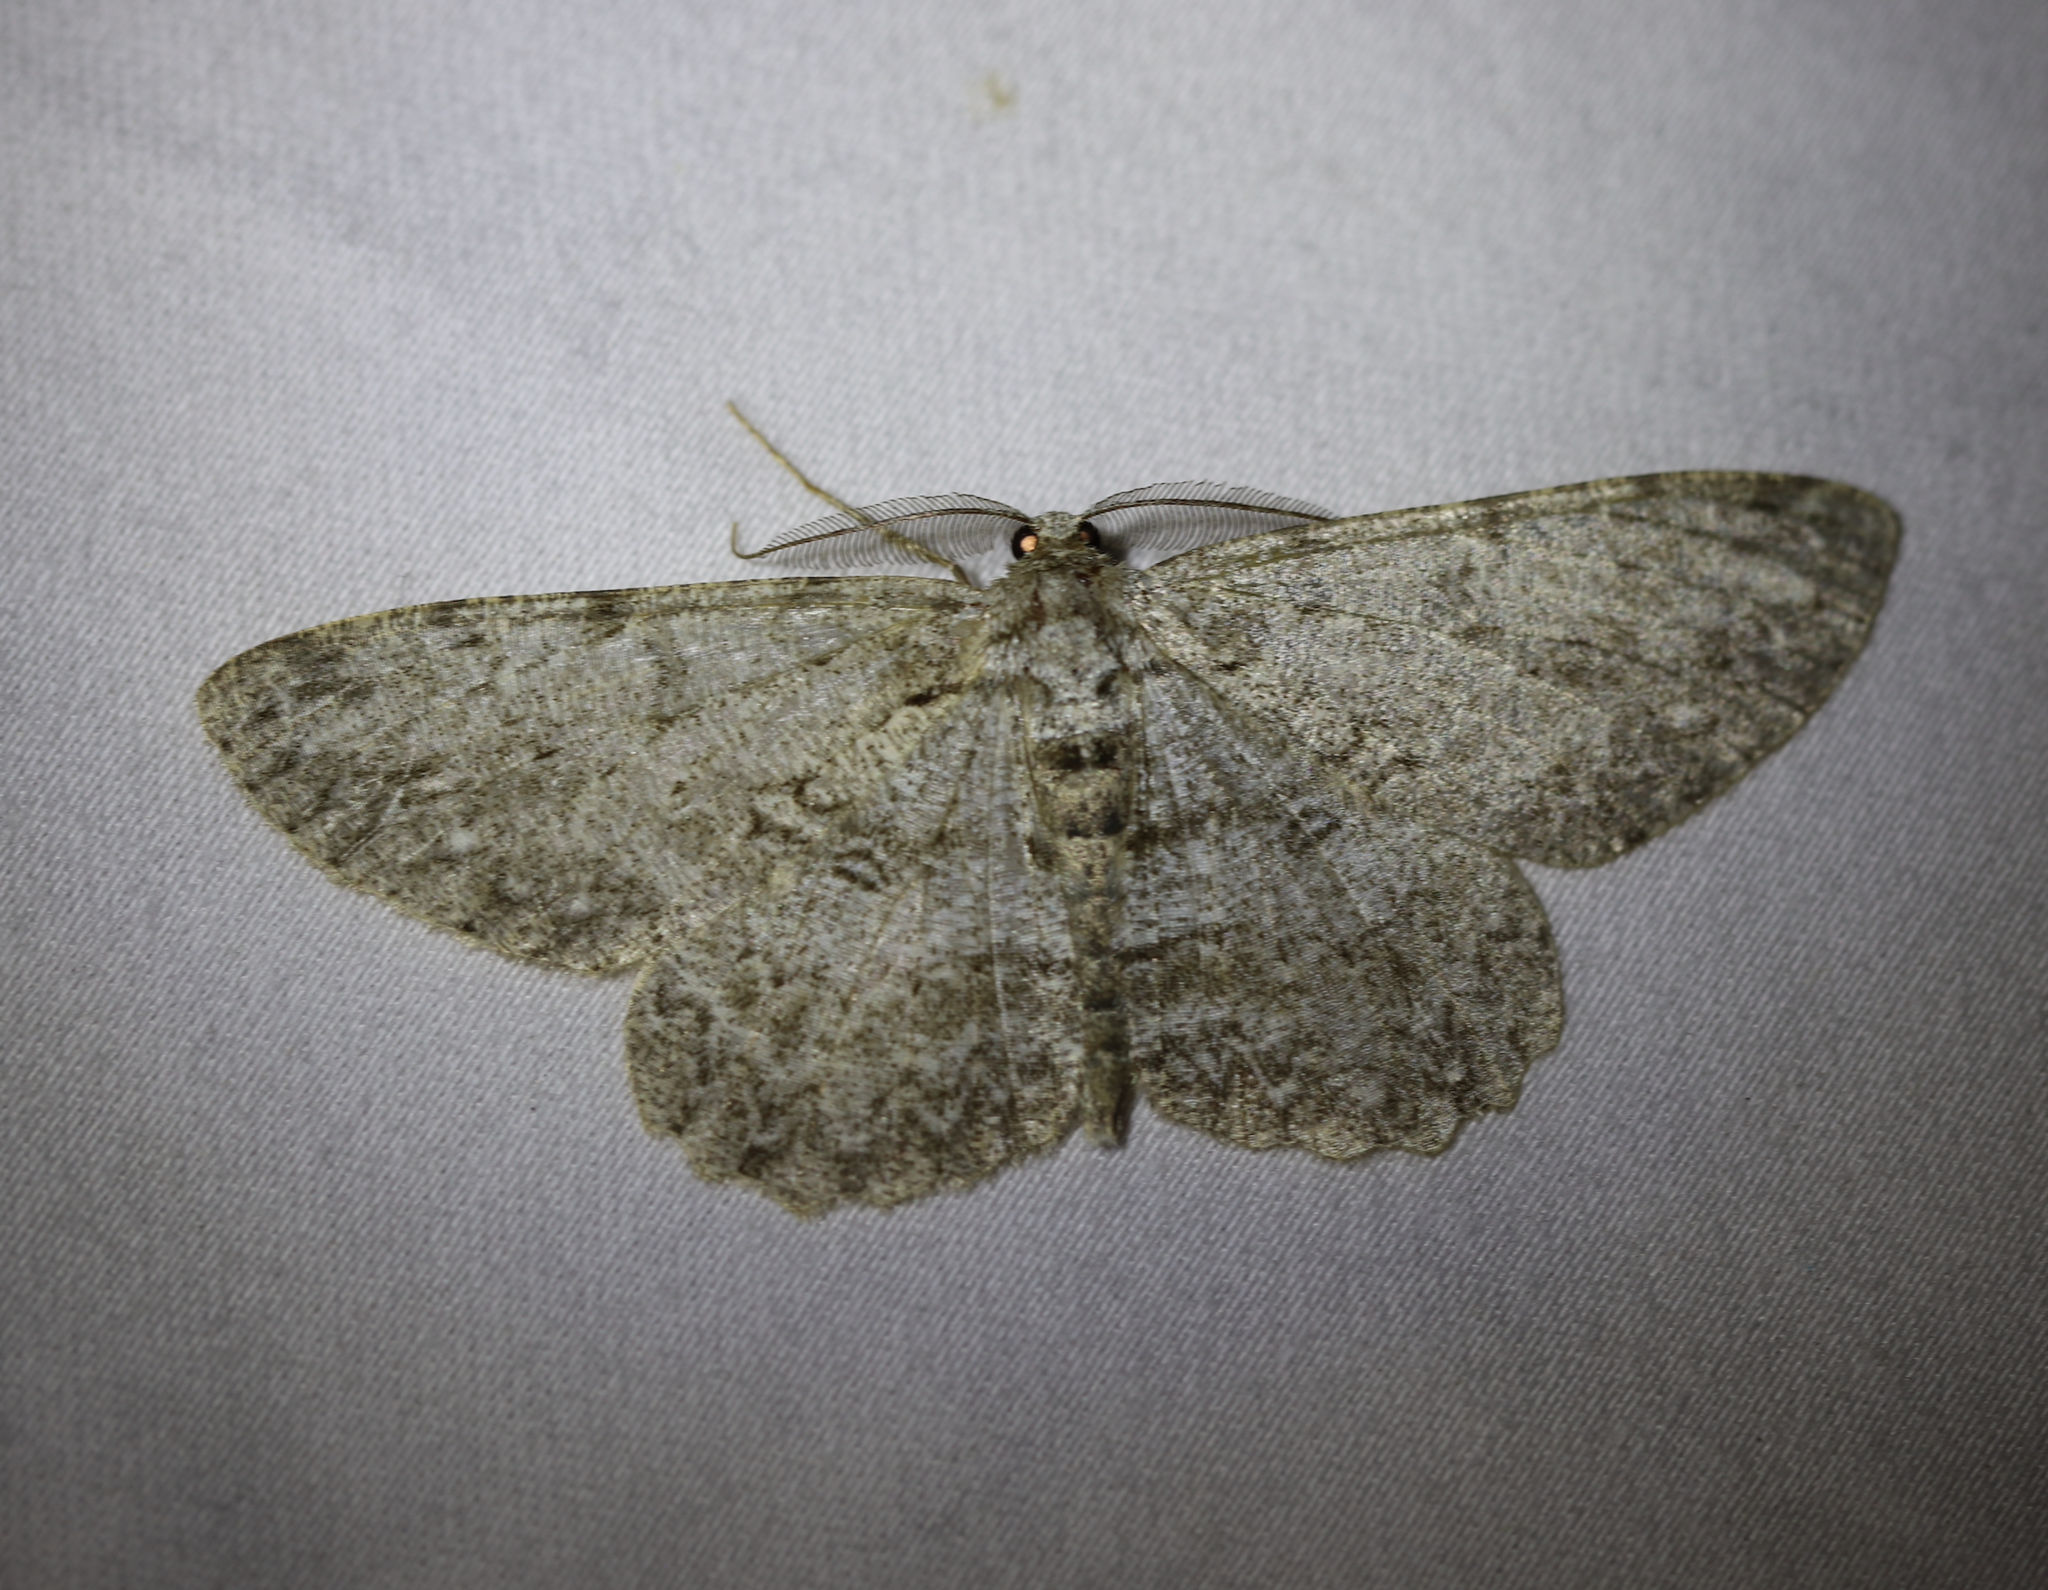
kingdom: Animalia
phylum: Arthropoda
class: Insecta
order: Lepidoptera
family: Geometridae
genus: Hypomecis
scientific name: Hypomecis punctinalis
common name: Pale oak beauty
